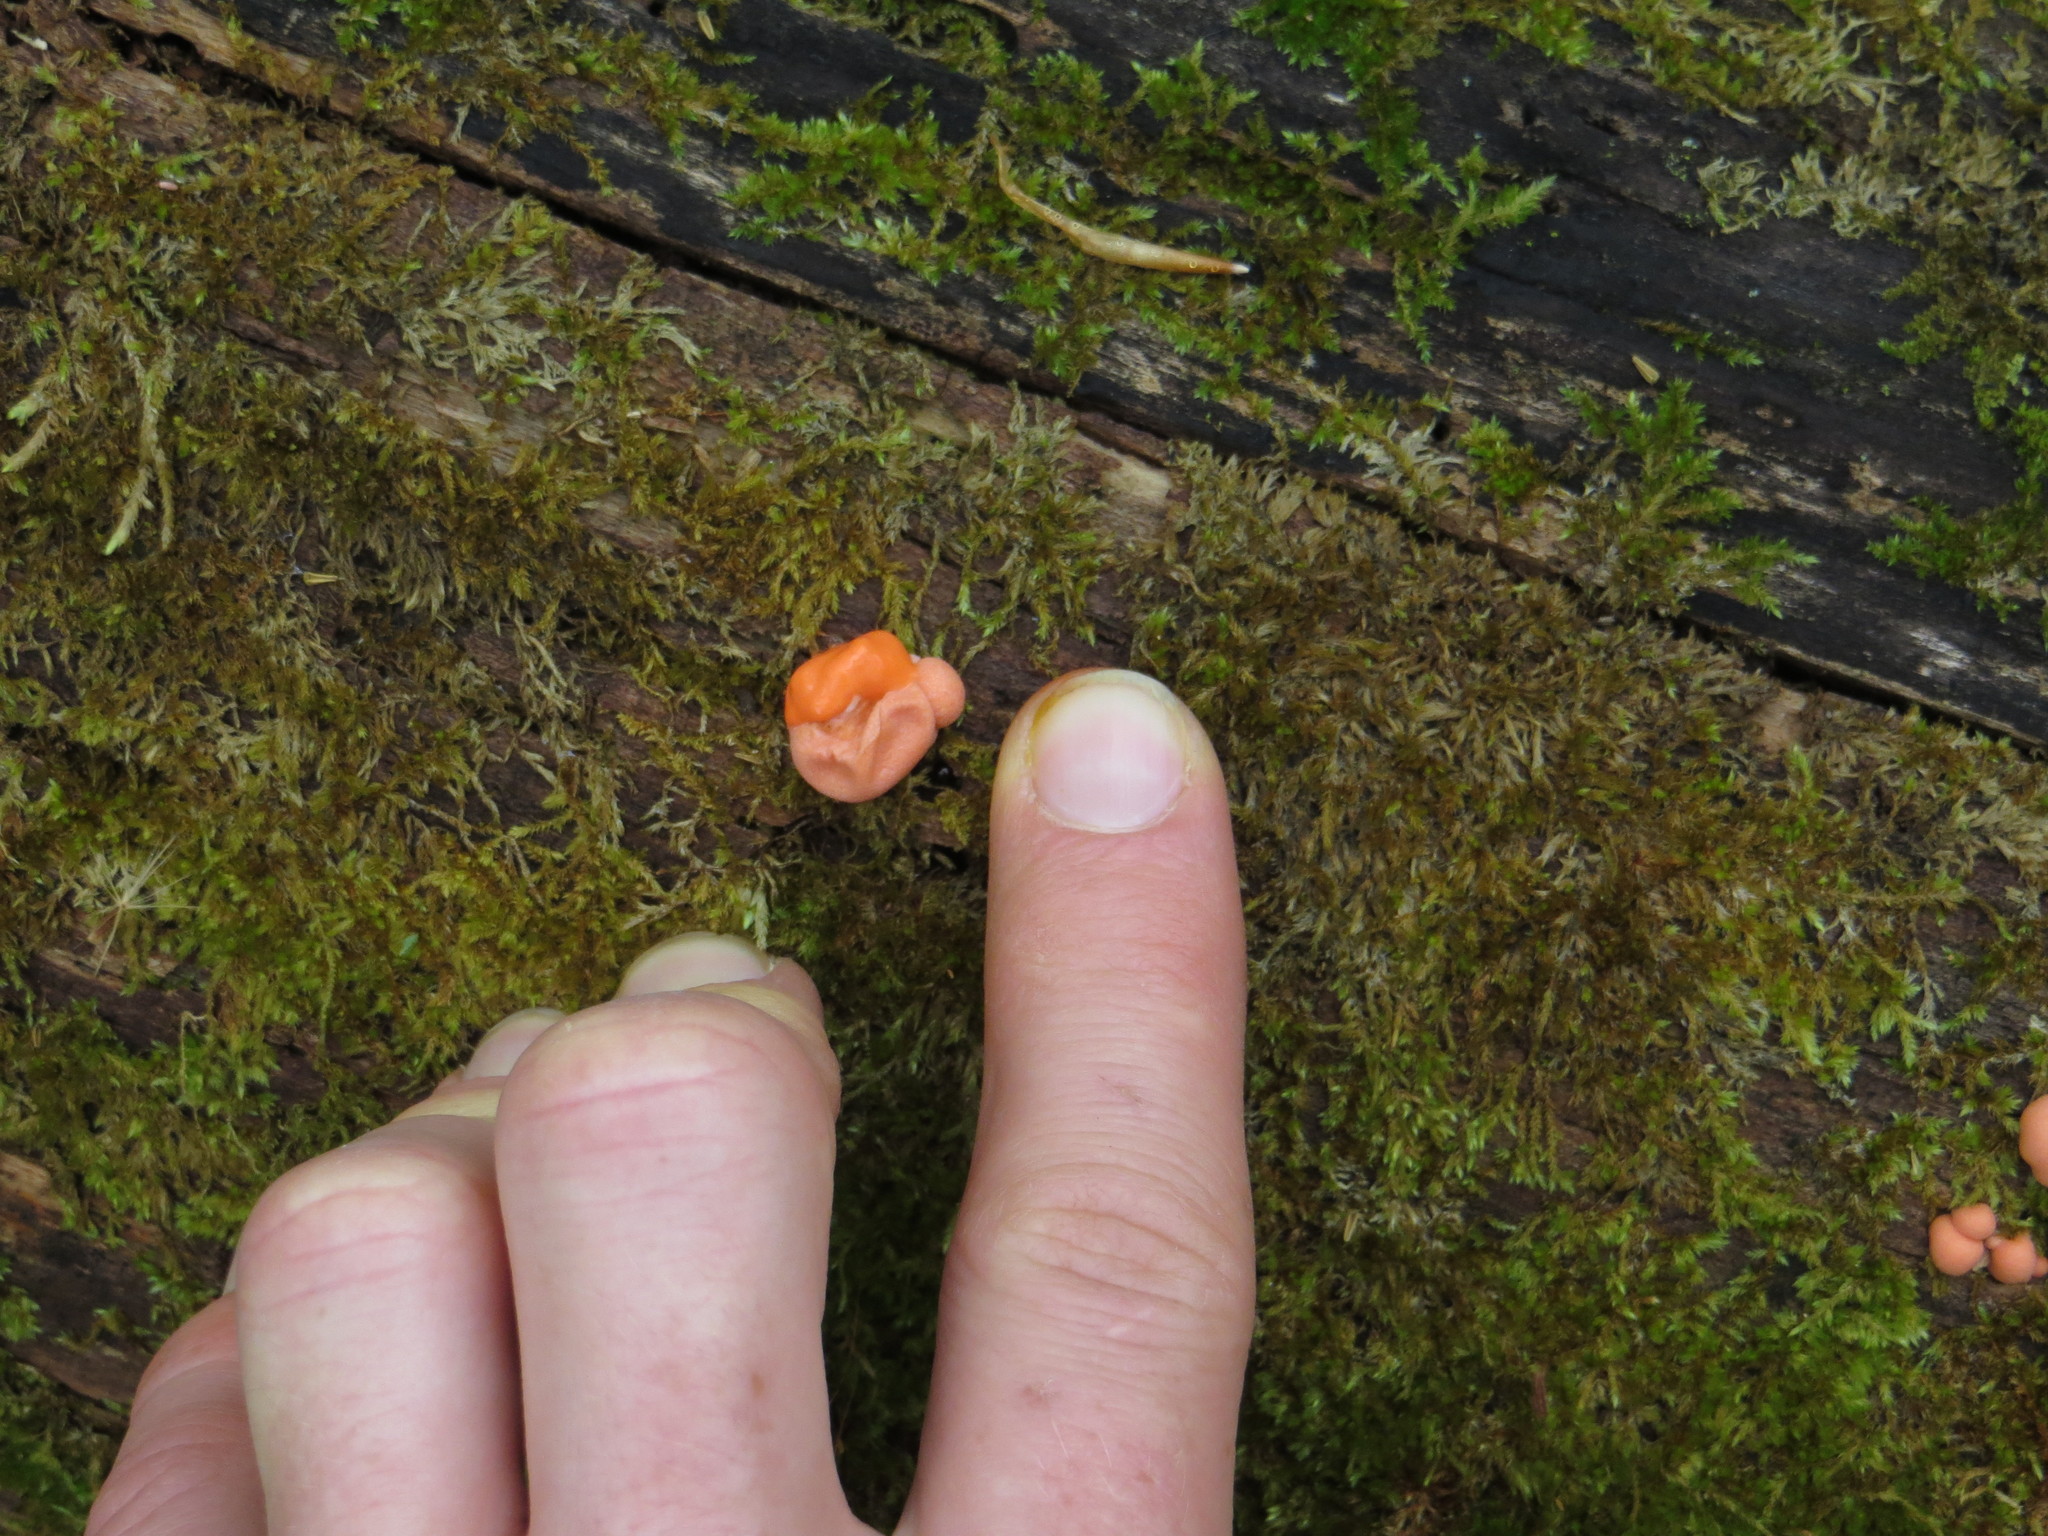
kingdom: Protozoa
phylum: Mycetozoa
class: Myxomycetes
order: Cribrariales
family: Tubiferaceae
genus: Lycogala
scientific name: Lycogala epidendrum
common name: Wolf's milk
